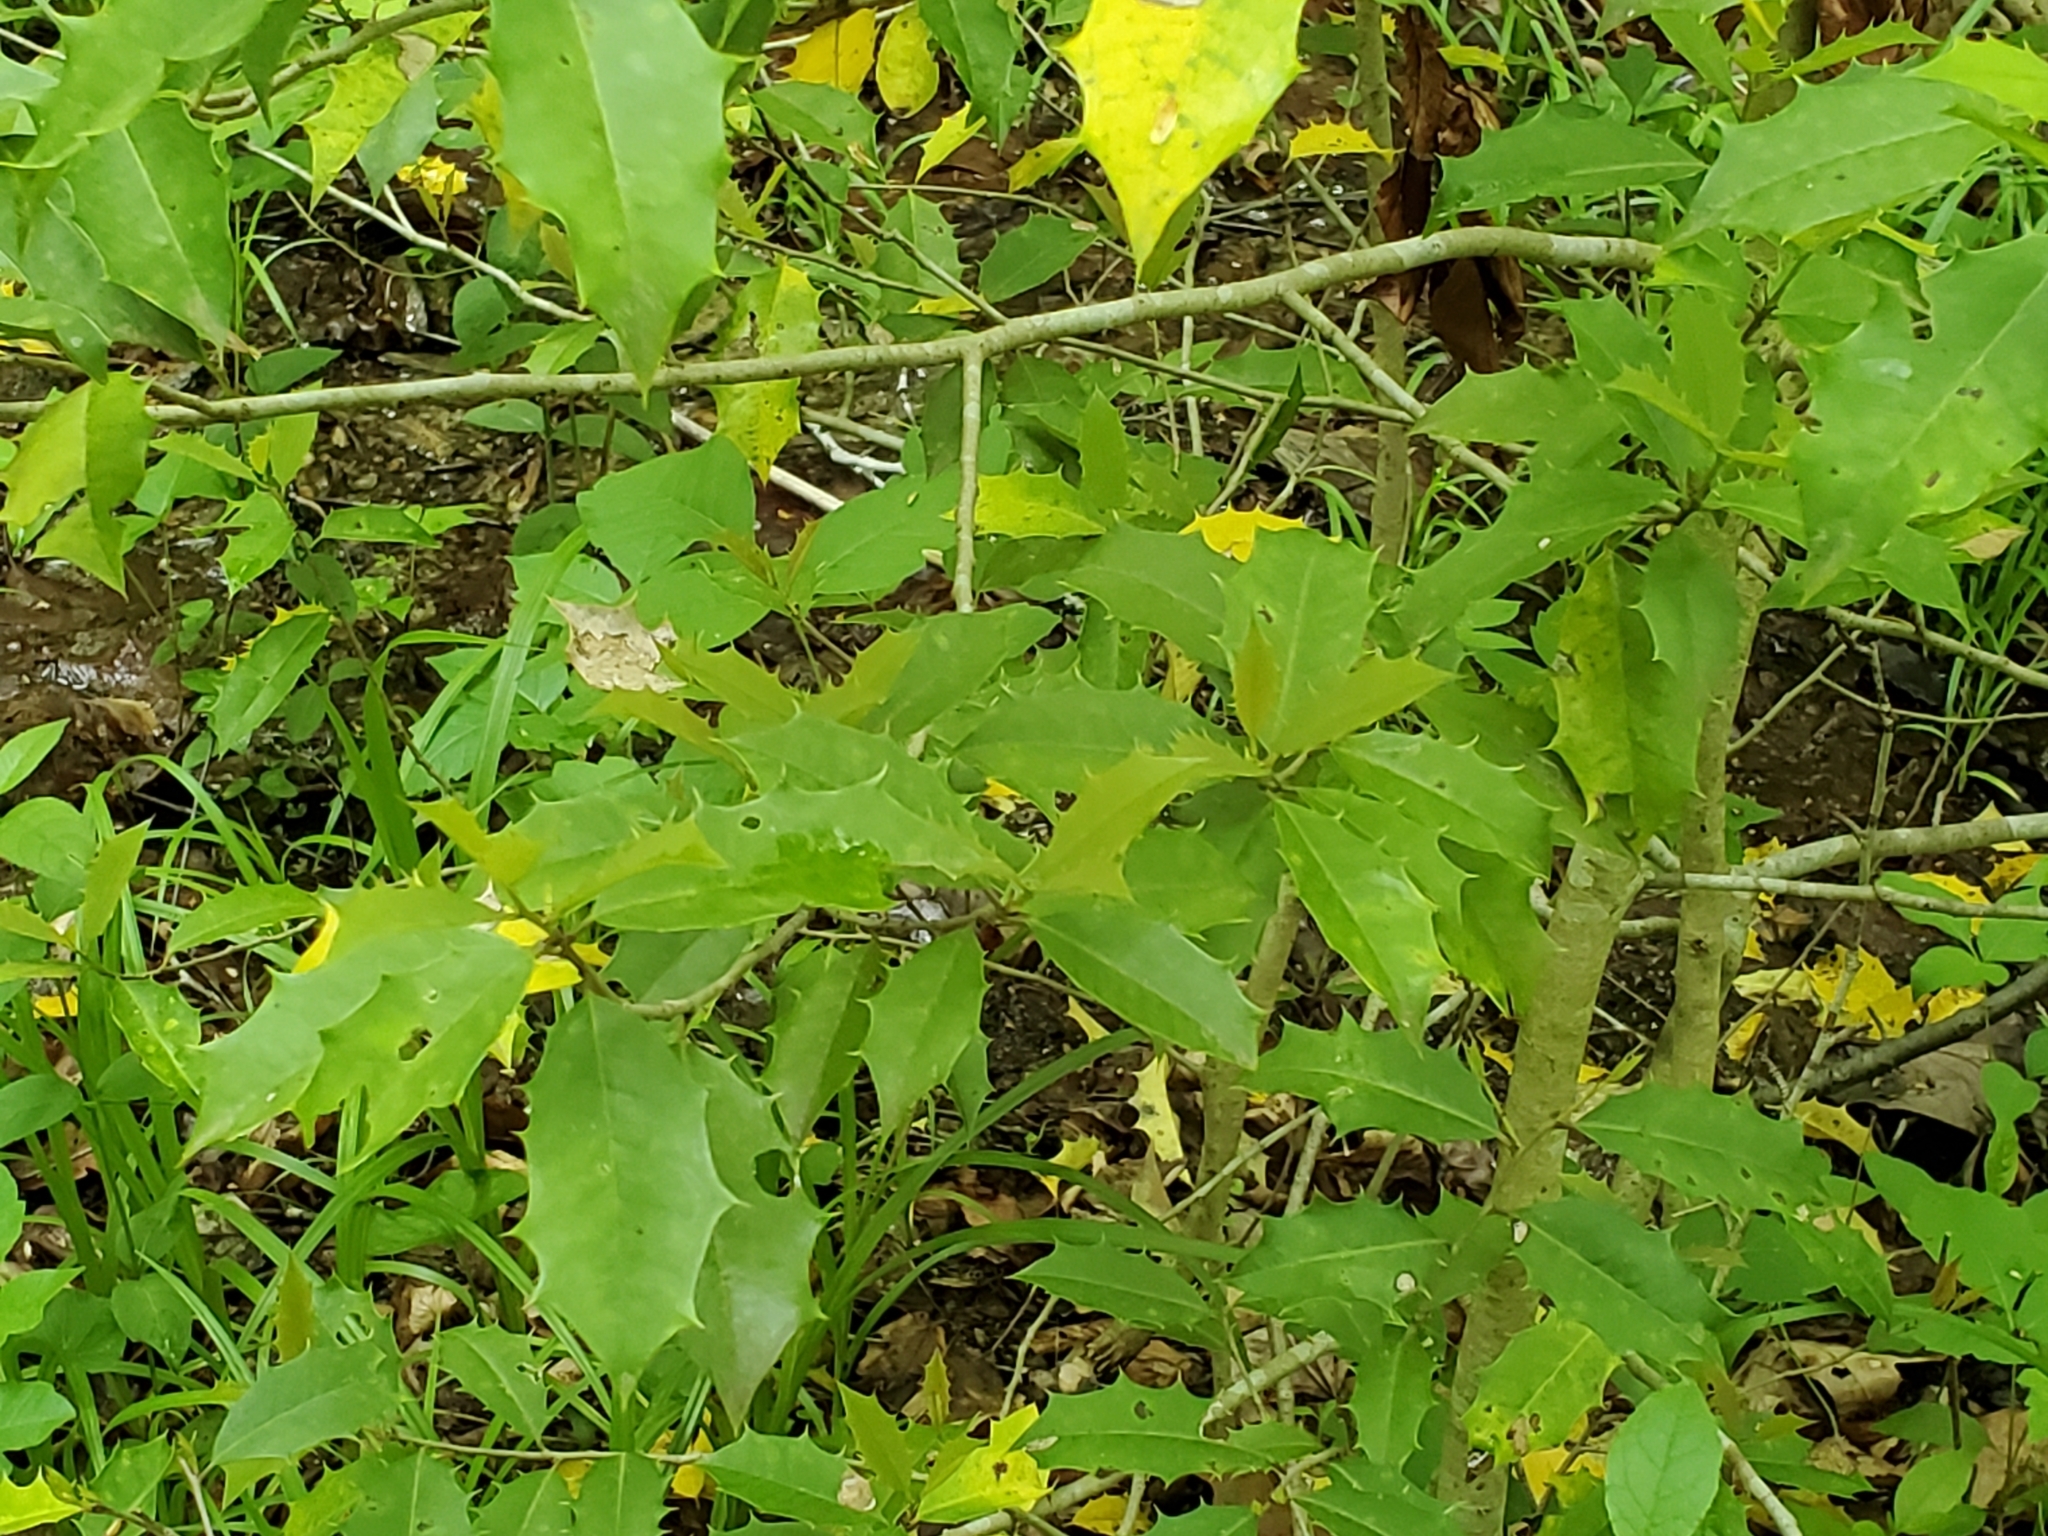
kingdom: Plantae
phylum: Tracheophyta
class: Magnoliopsida
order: Aquifoliales
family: Aquifoliaceae
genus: Ilex
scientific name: Ilex opaca
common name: American holly
